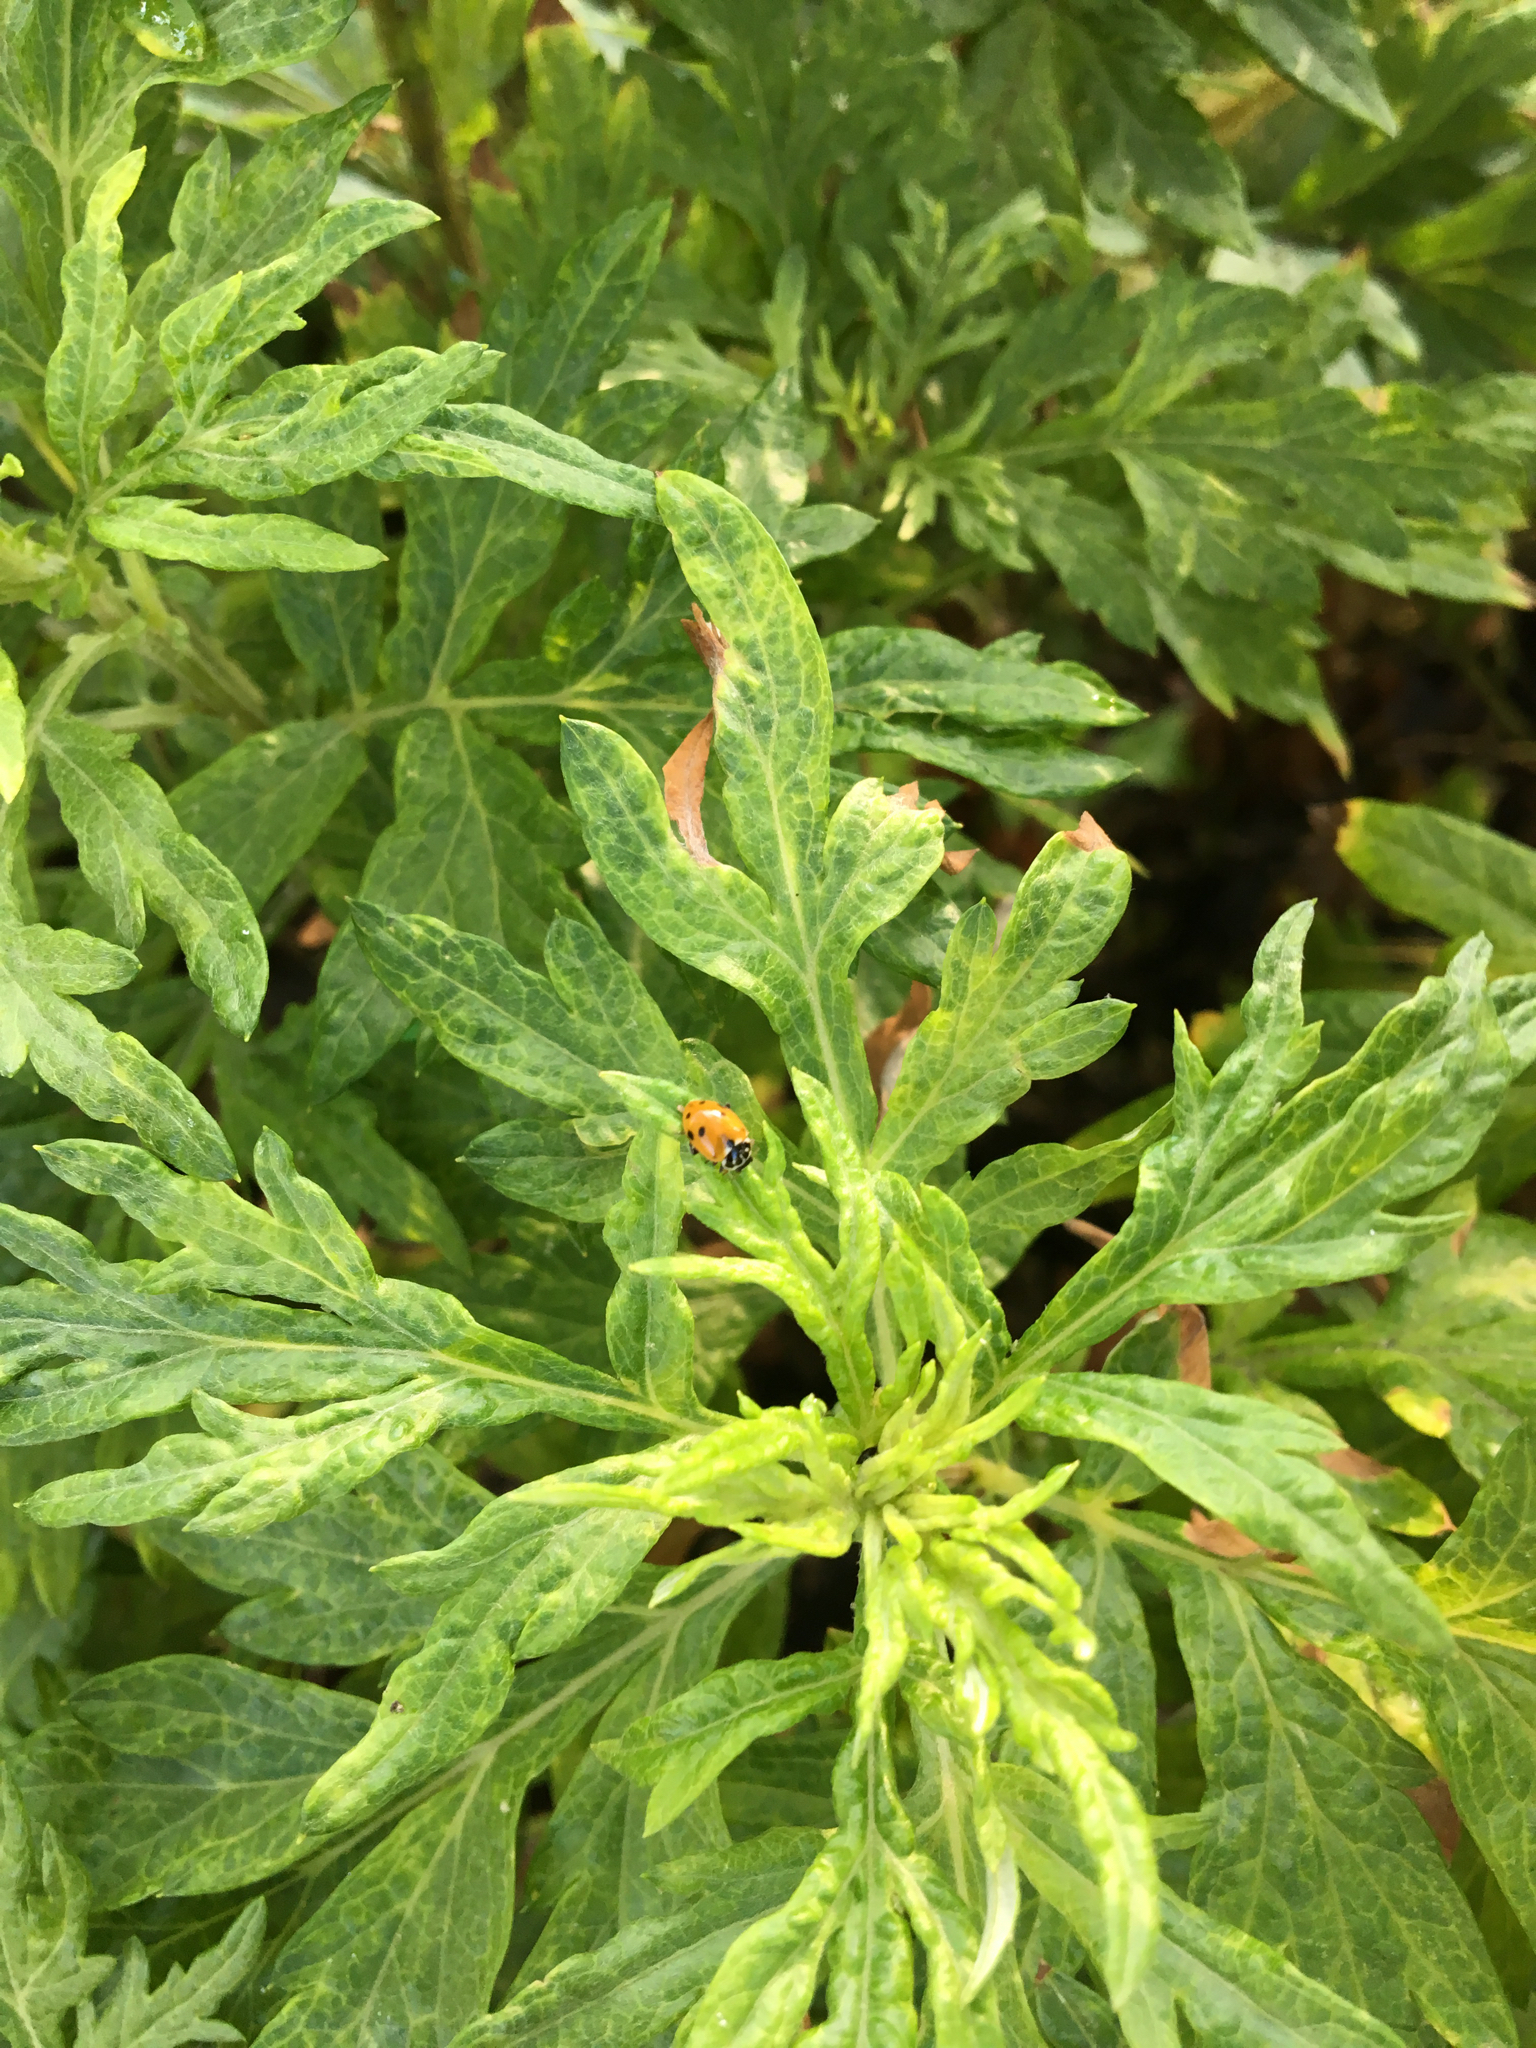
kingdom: Animalia
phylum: Arthropoda
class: Insecta
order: Coleoptera
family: Coccinellidae
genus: Hippodamia
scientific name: Hippodamia variegata
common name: Ladybird beetle
